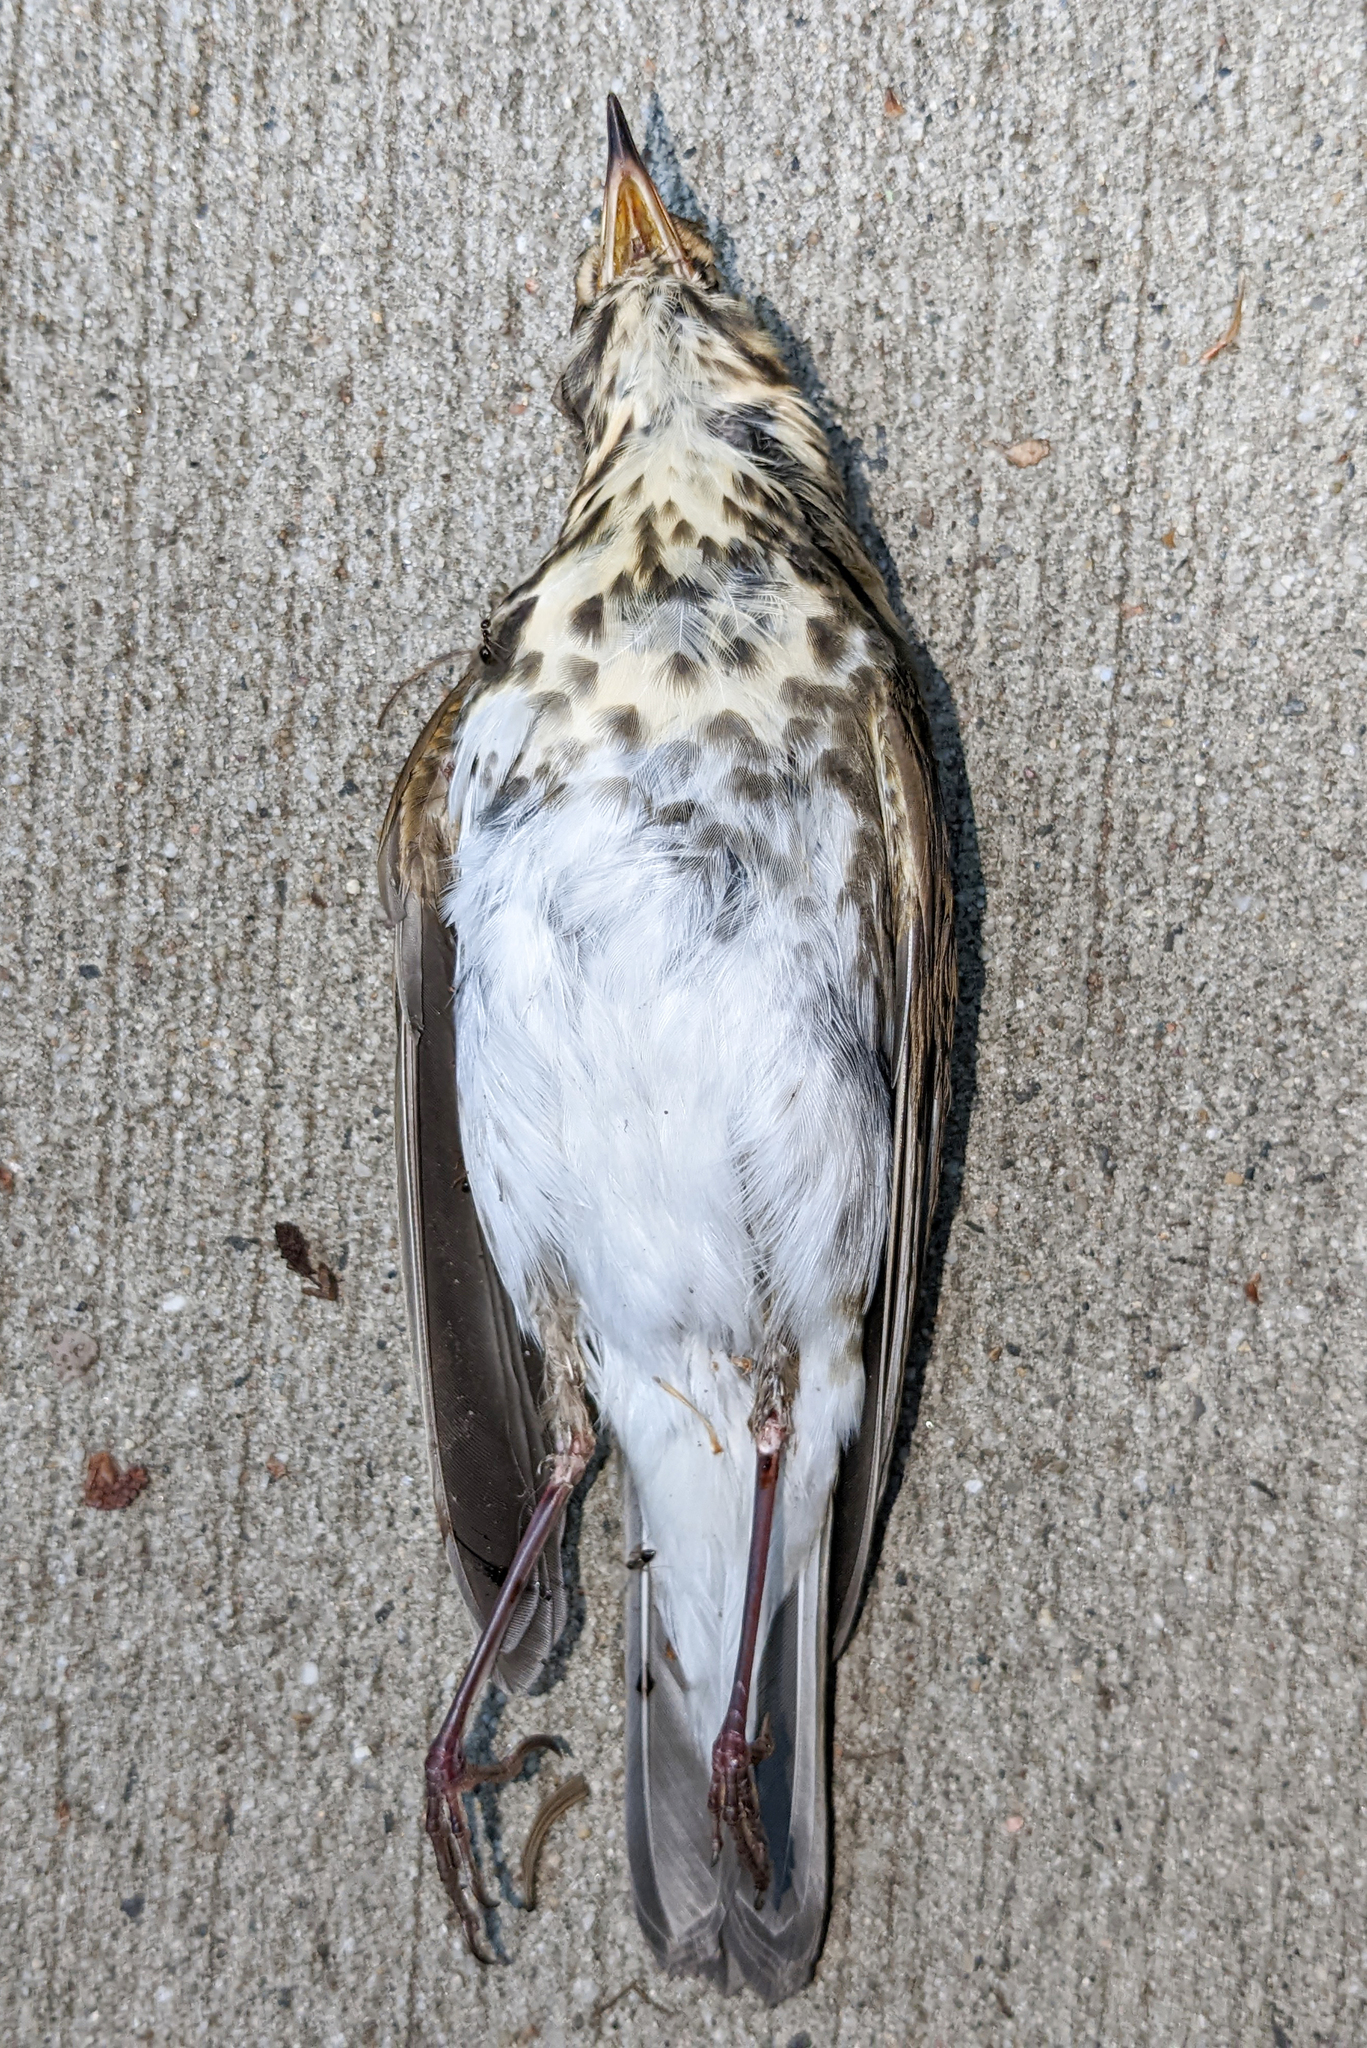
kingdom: Animalia
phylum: Chordata
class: Aves
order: Passeriformes
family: Turdidae
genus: Catharus
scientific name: Catharus ustulatus
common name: Swainson's thrush
